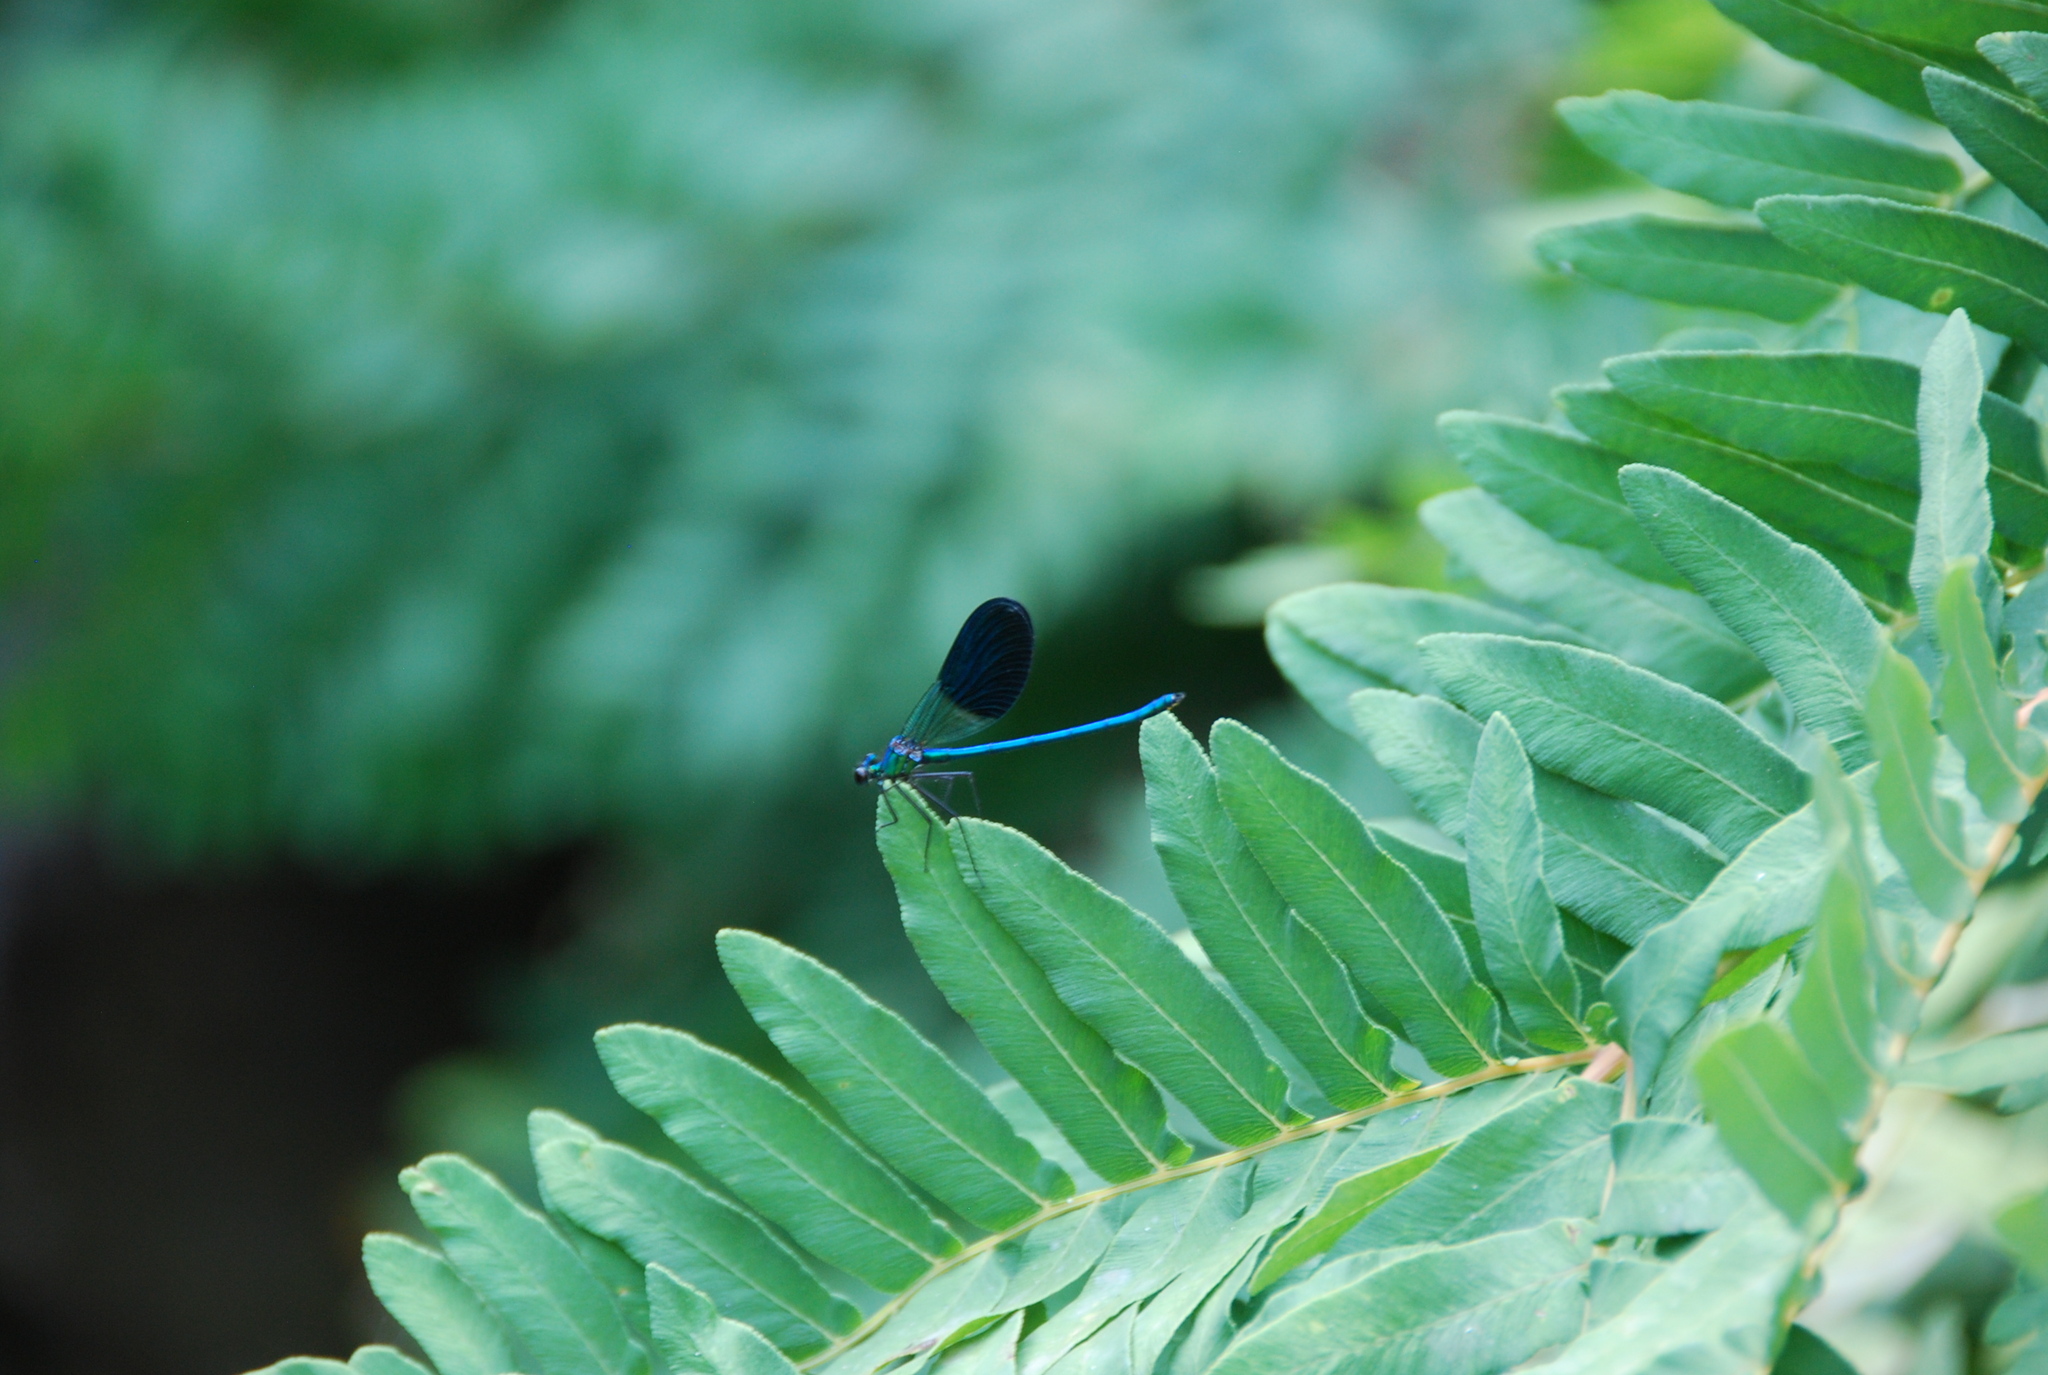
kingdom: Animalia
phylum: Arthropoda
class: Insecta
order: Odonata
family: Calopterygidae
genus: Calopteryx
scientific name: Calopteryx xanthostoma
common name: Western demoiselle
